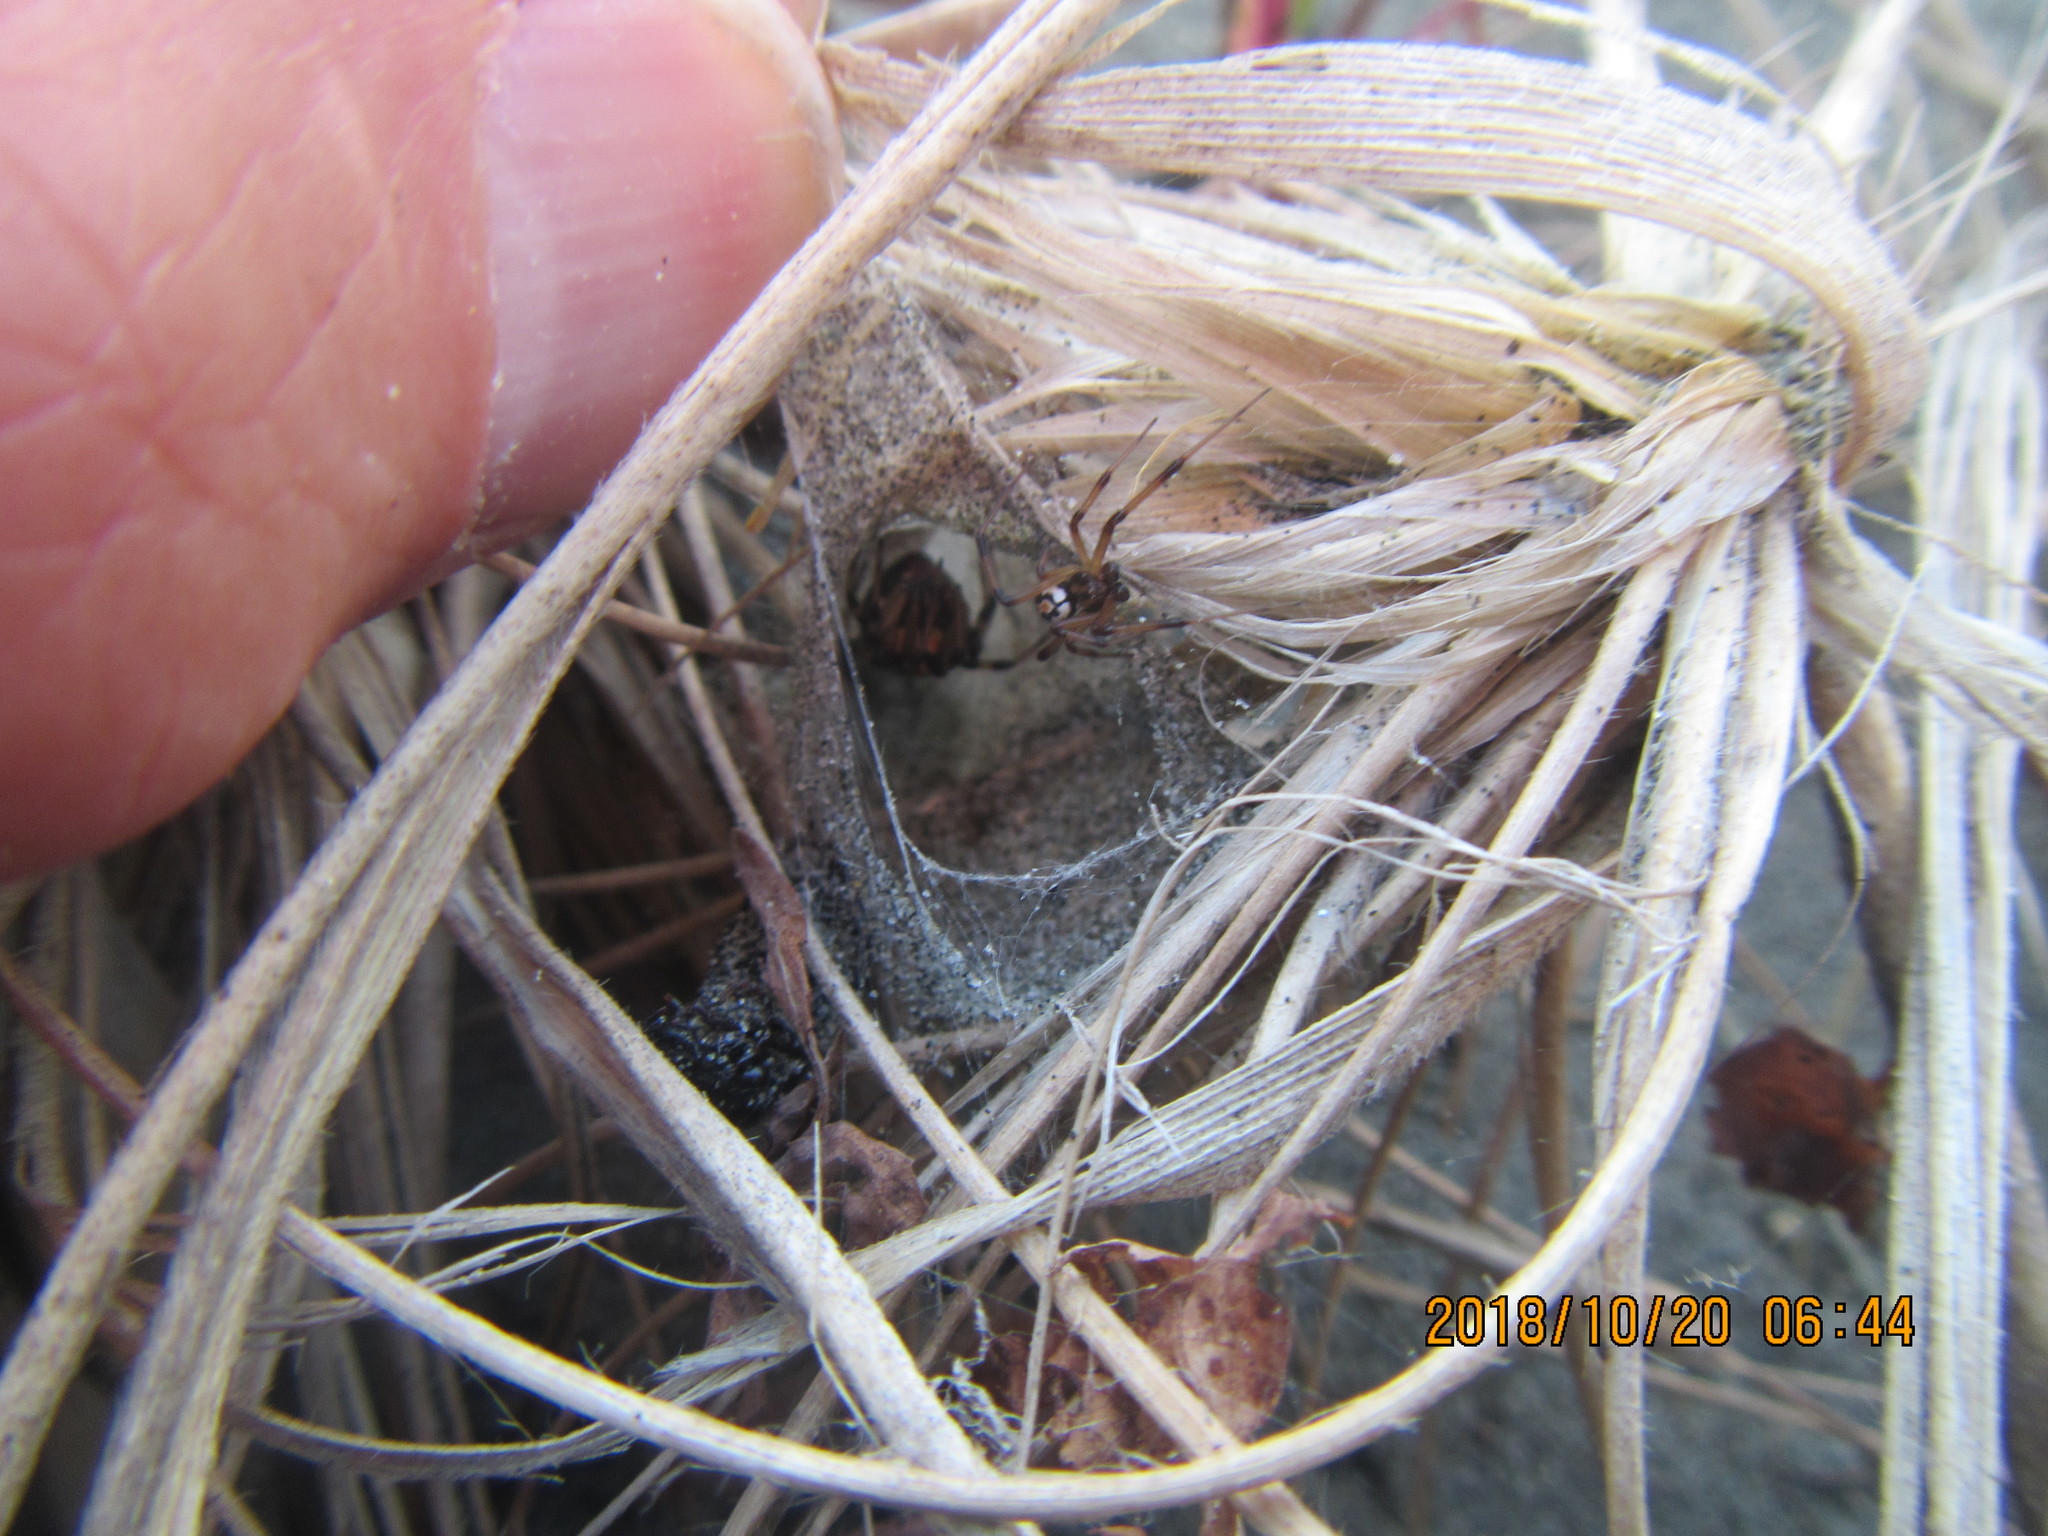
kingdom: Animalia
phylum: Arthropoda
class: Arachnida
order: Araneae
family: Theridiidae
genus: Latrodectus
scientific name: Latrodectus katipo
